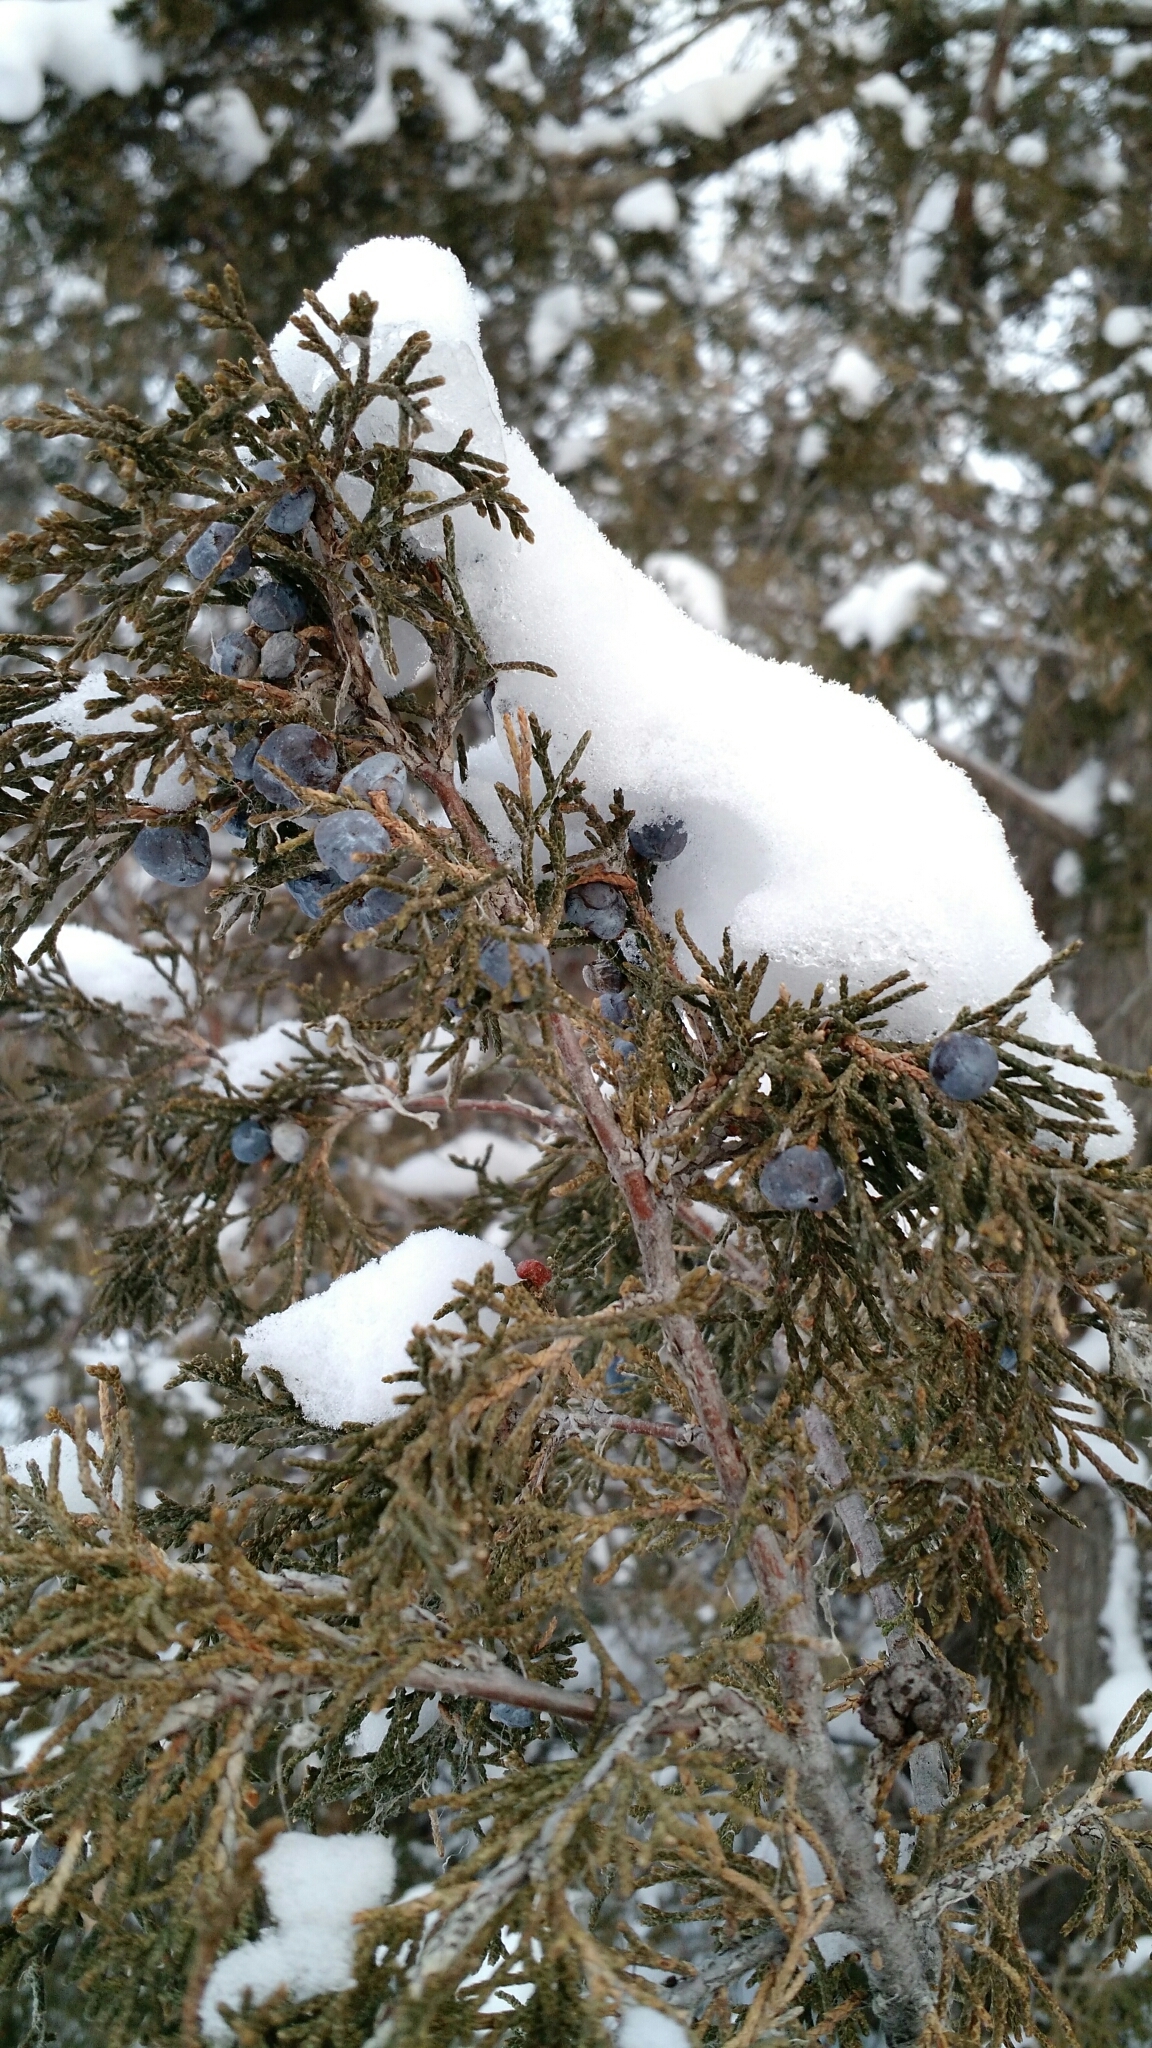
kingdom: Plantae
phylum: Tracheophyta
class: Pinopsida
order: Pinales
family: Cupressaceae
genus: Juniperus
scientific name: Juniperus scopulorum
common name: Rocky mountain juniper
